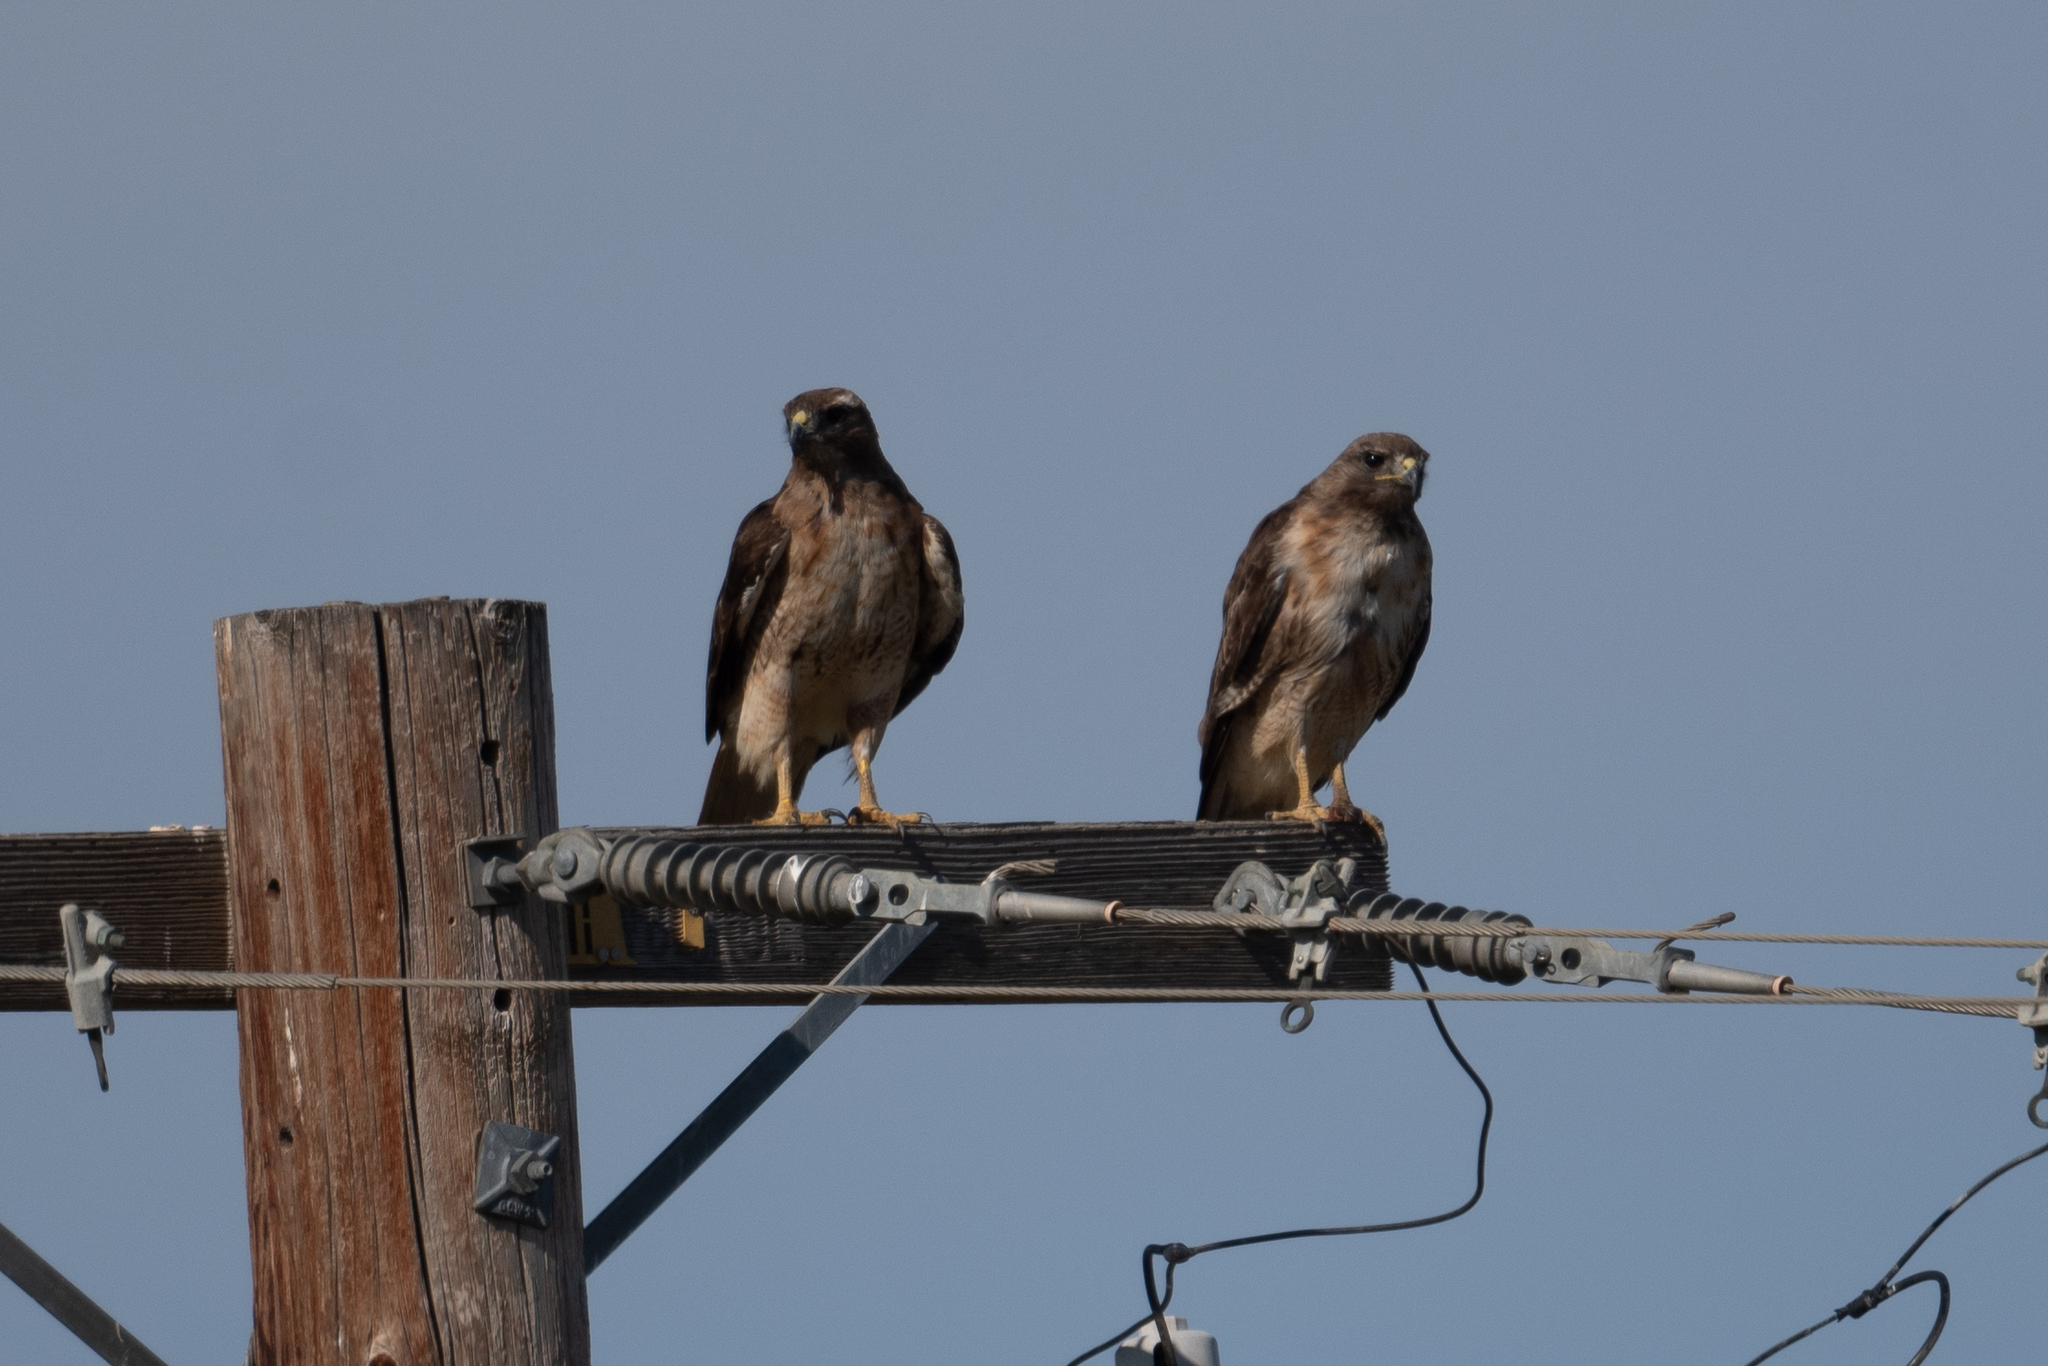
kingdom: Animalia
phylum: Chordata
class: Aves
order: Accipitriformes
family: Accipitridae
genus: Buteo
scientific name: Buteo jamaicensis
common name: Red-tailed hawk
